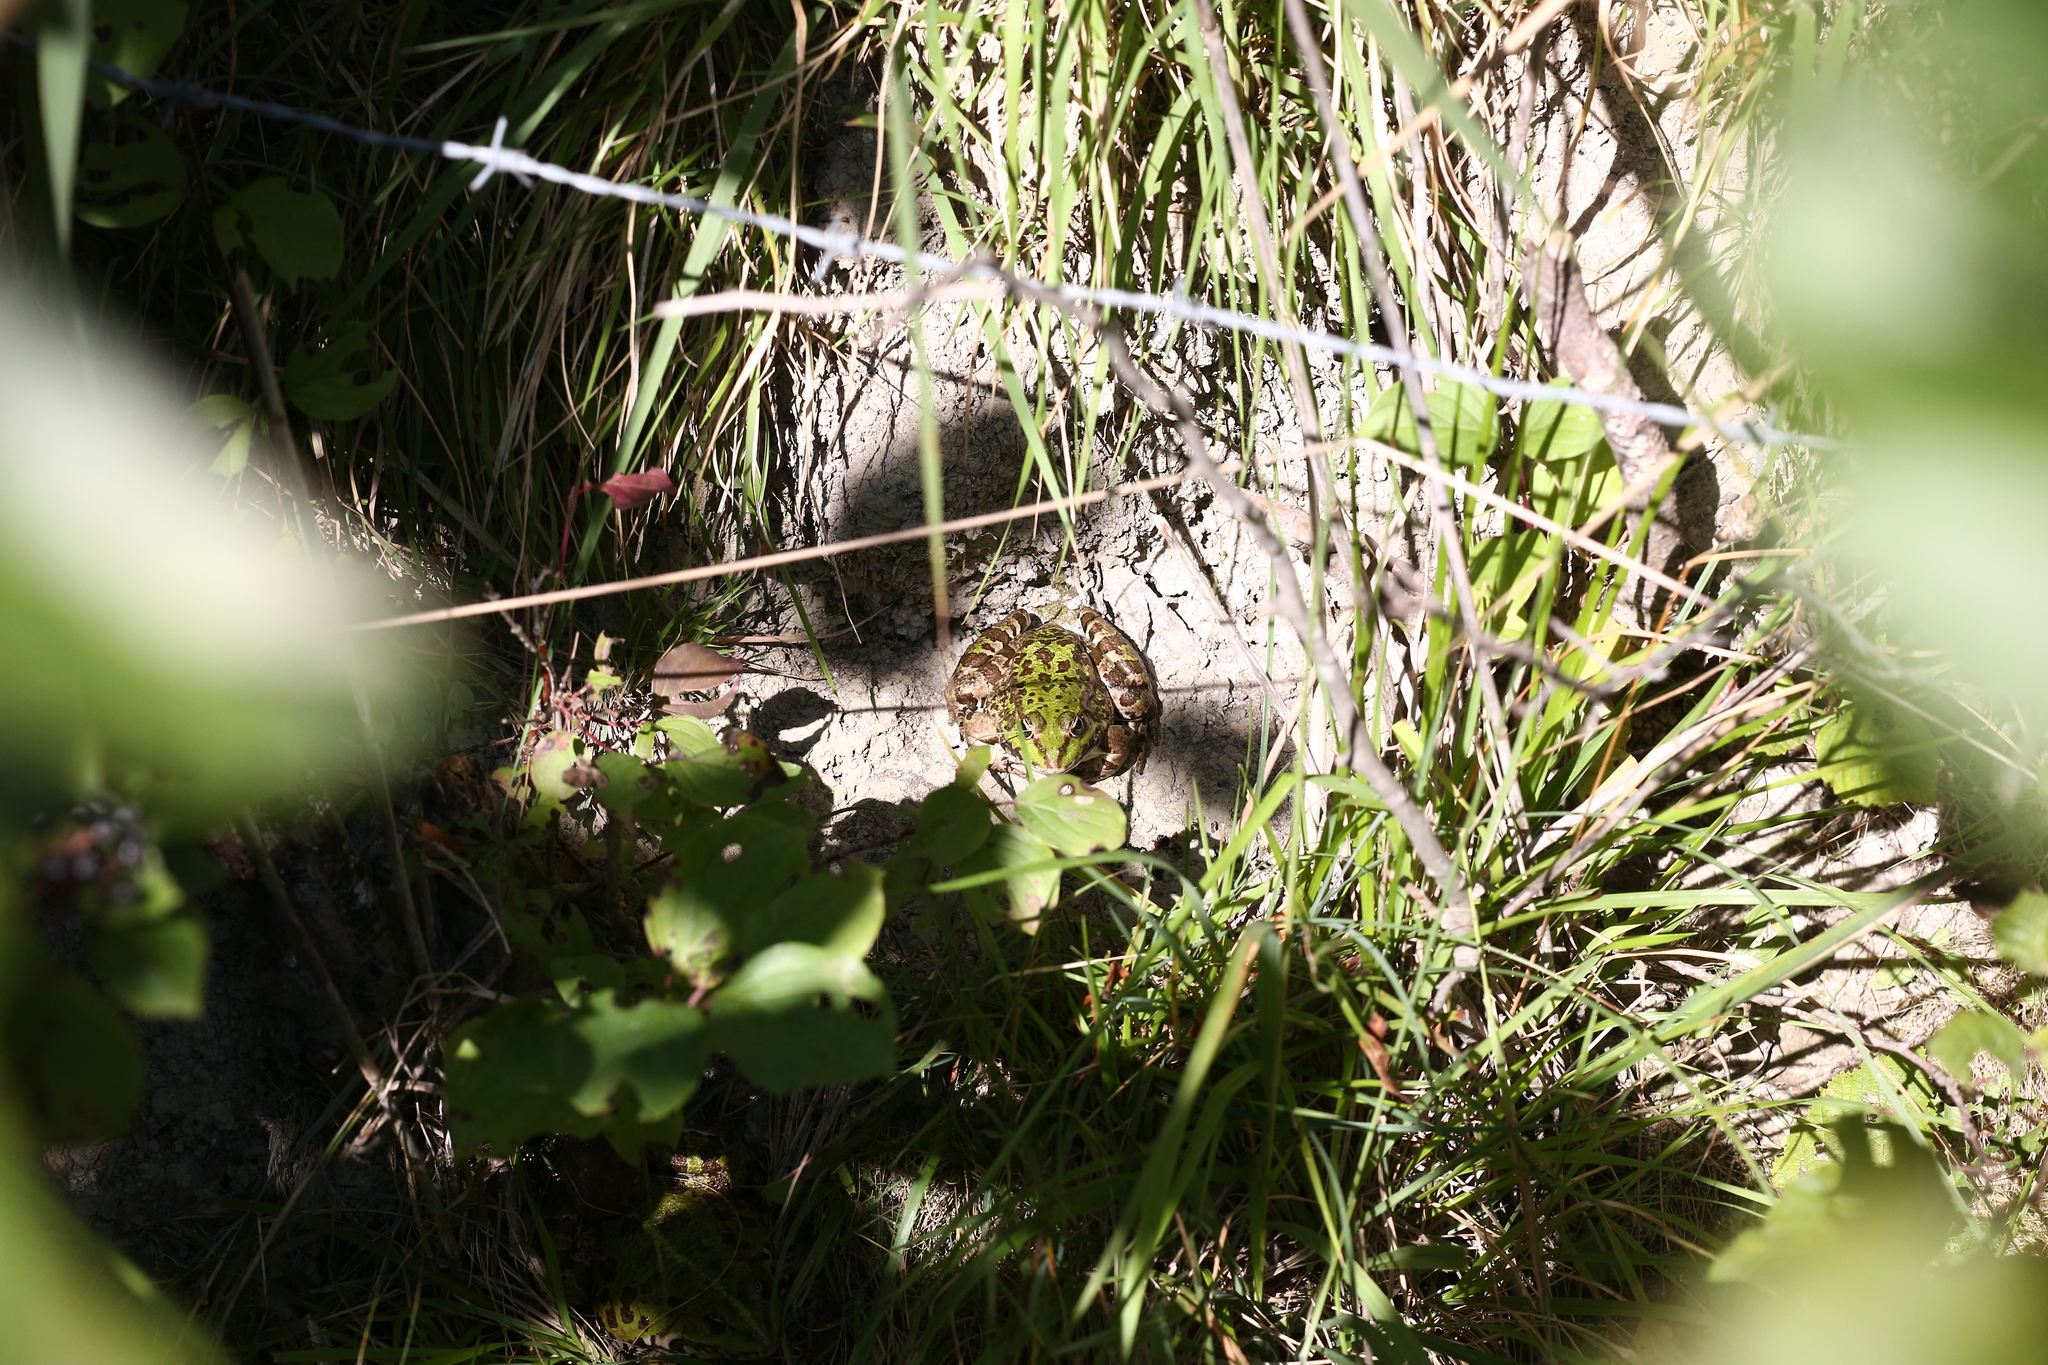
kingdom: Animalia
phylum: Chordata
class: Amphibia
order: Anura
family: Ranidae
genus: Pelophylax
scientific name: Pelophylax
